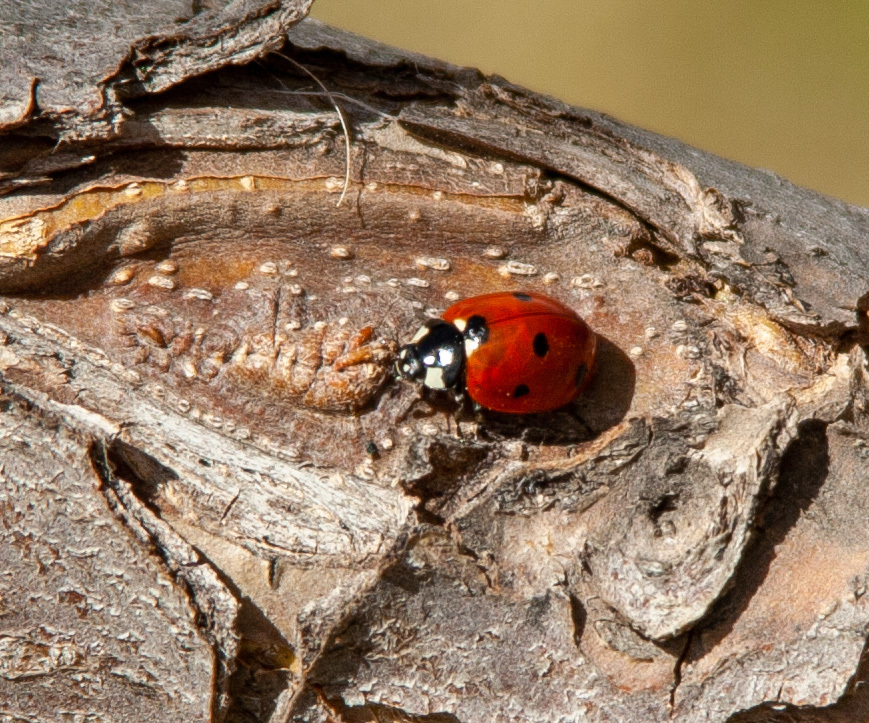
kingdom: Animalia
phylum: Arthropoda
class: Insecta
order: Coleoptera
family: Coccinellidae
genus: Coccinella
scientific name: Coccinella septempunctata
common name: Sevenspotted lady beetle
